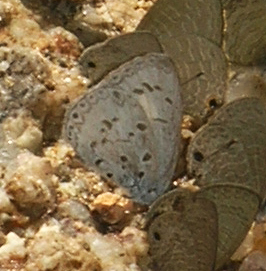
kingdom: Animalia
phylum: Arthropoda
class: Insecta
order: Lepidoptera
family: Lycaenidae
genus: Acytolepis
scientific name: Acytolepis puspa
